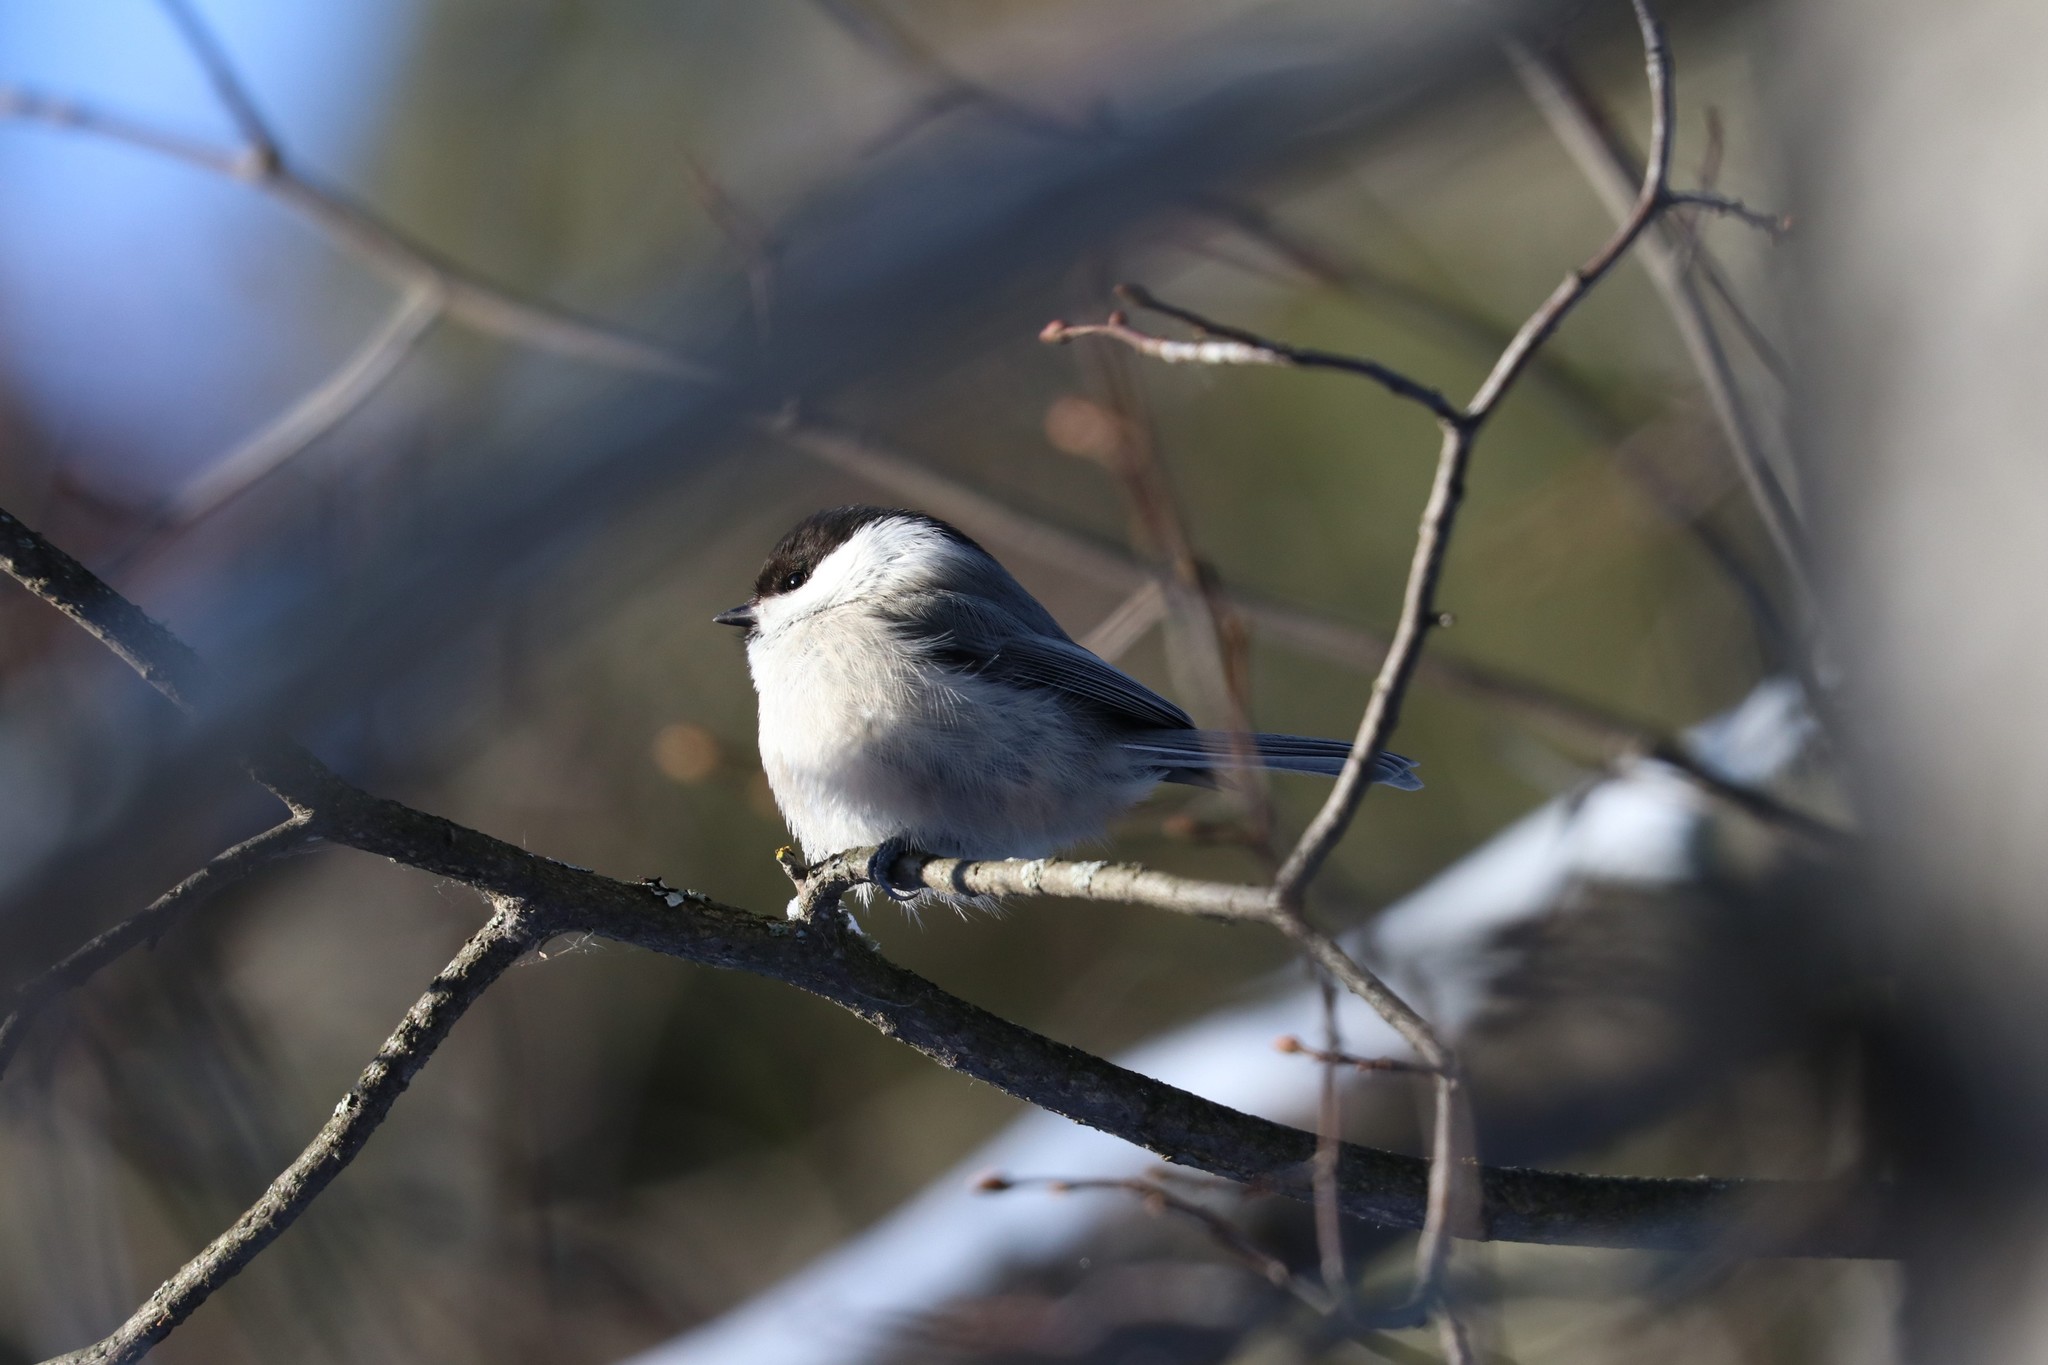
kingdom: Animalia
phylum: Chordata
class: Aves
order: Passeriformes
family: Paridae
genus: Poecile
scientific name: Poecile montanus
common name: Willow tit
